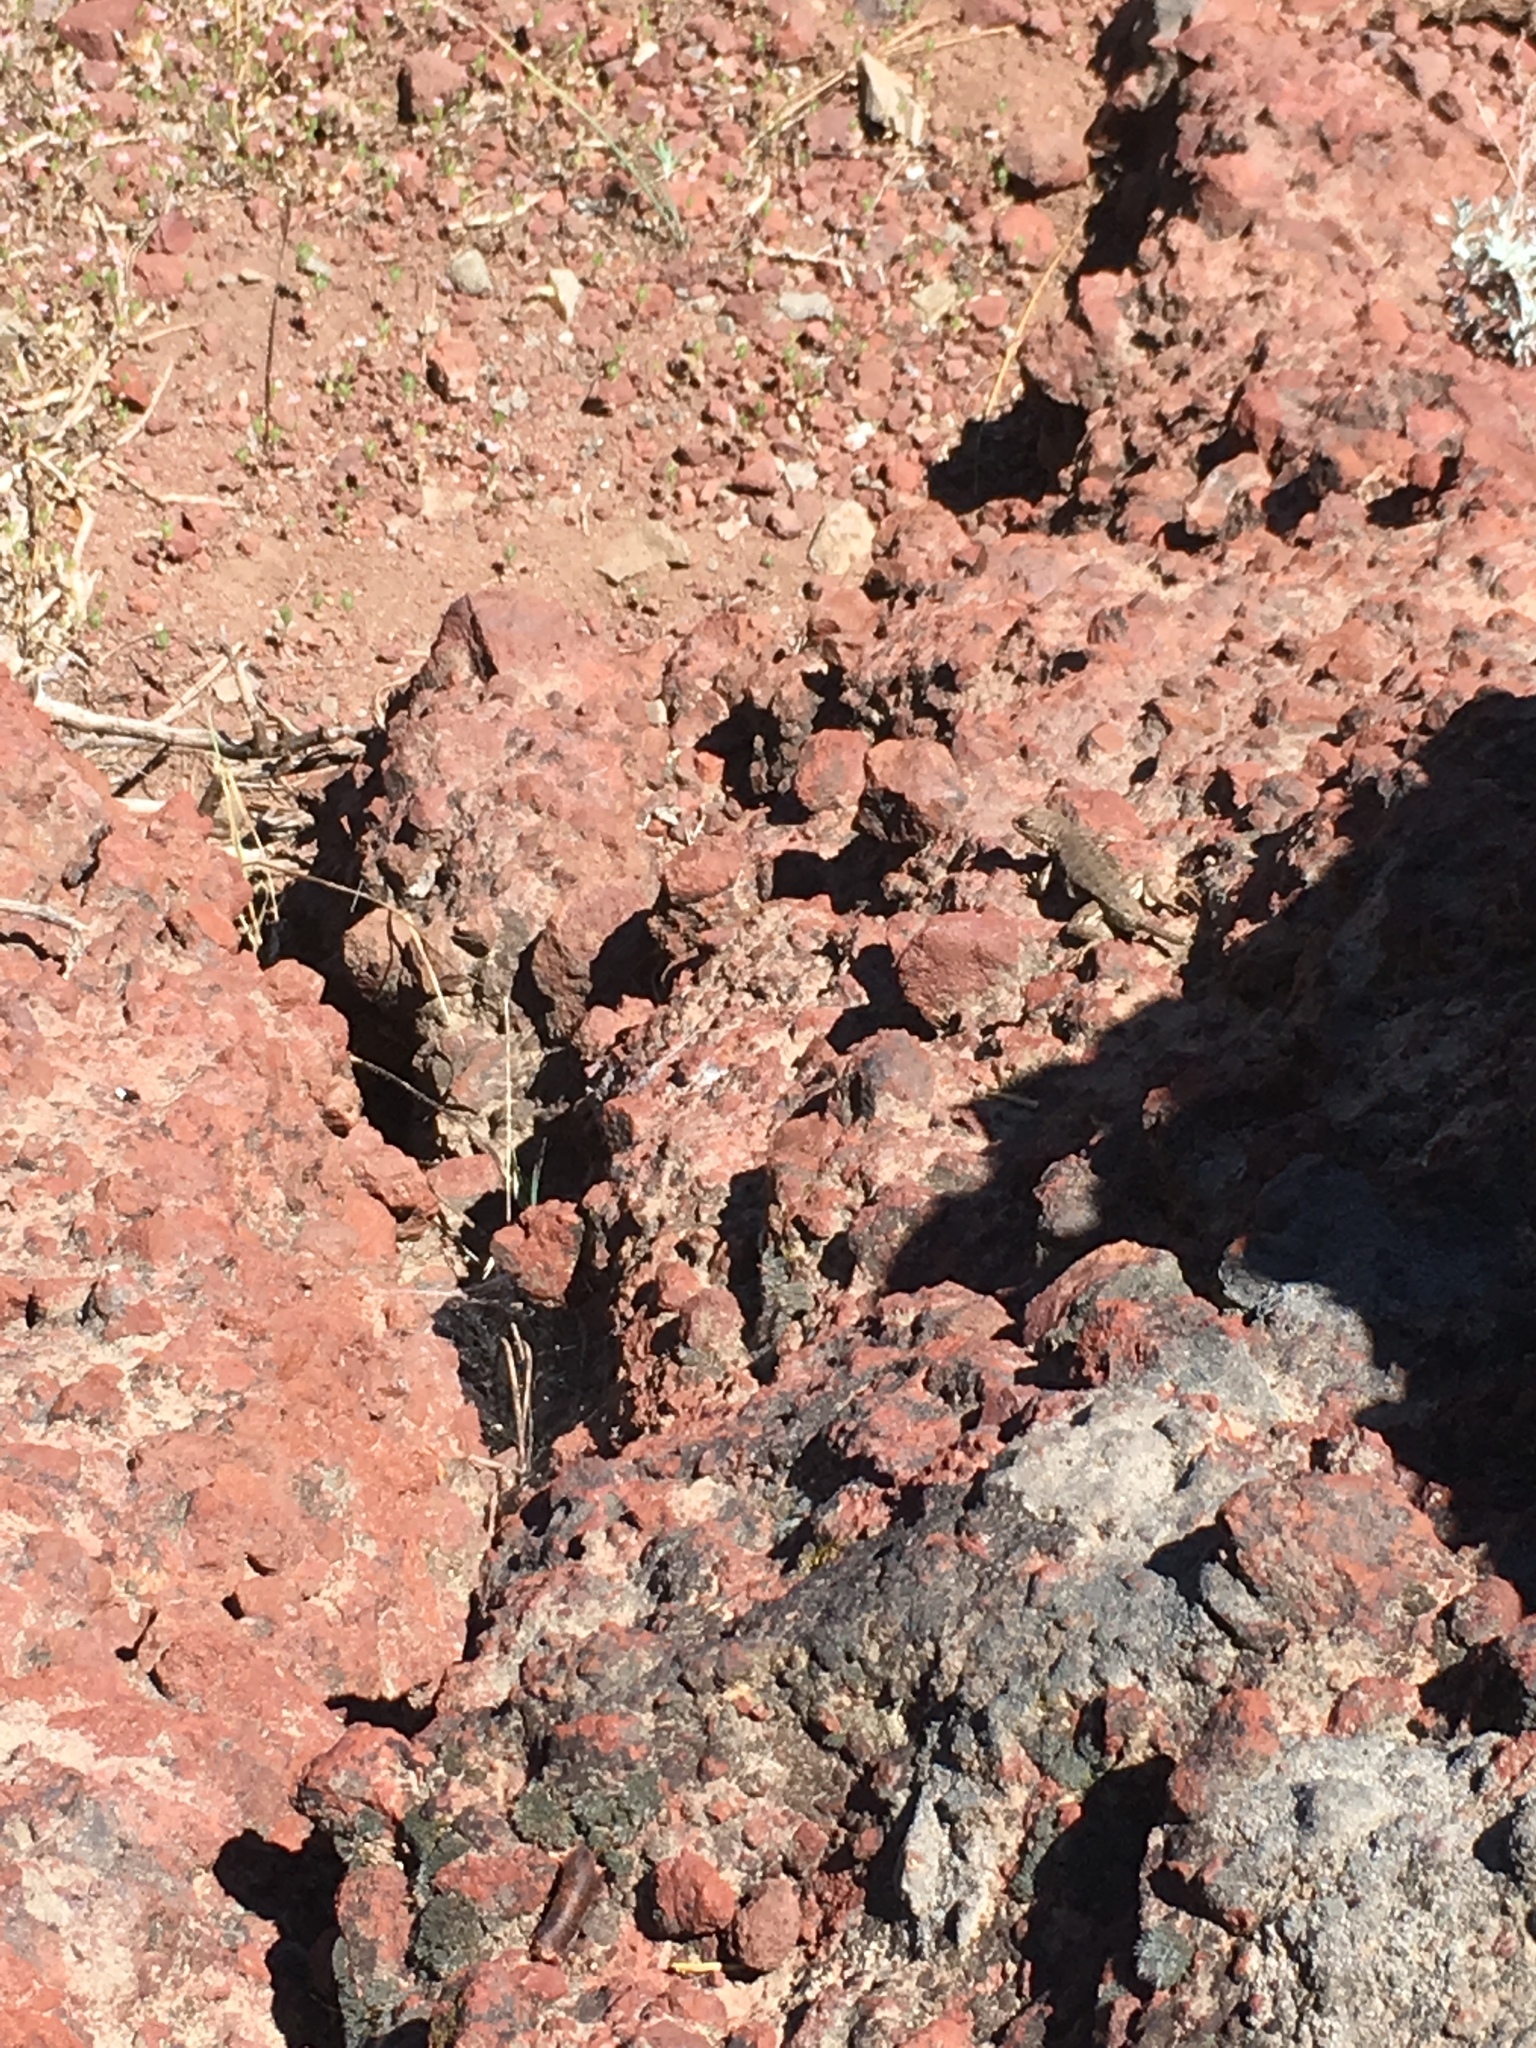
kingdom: Animalia
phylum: Chordata
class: Squamata
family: Phrynosomatidae
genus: Sceloporus
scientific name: Sceloporus occidentalis
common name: Western fence lizard
